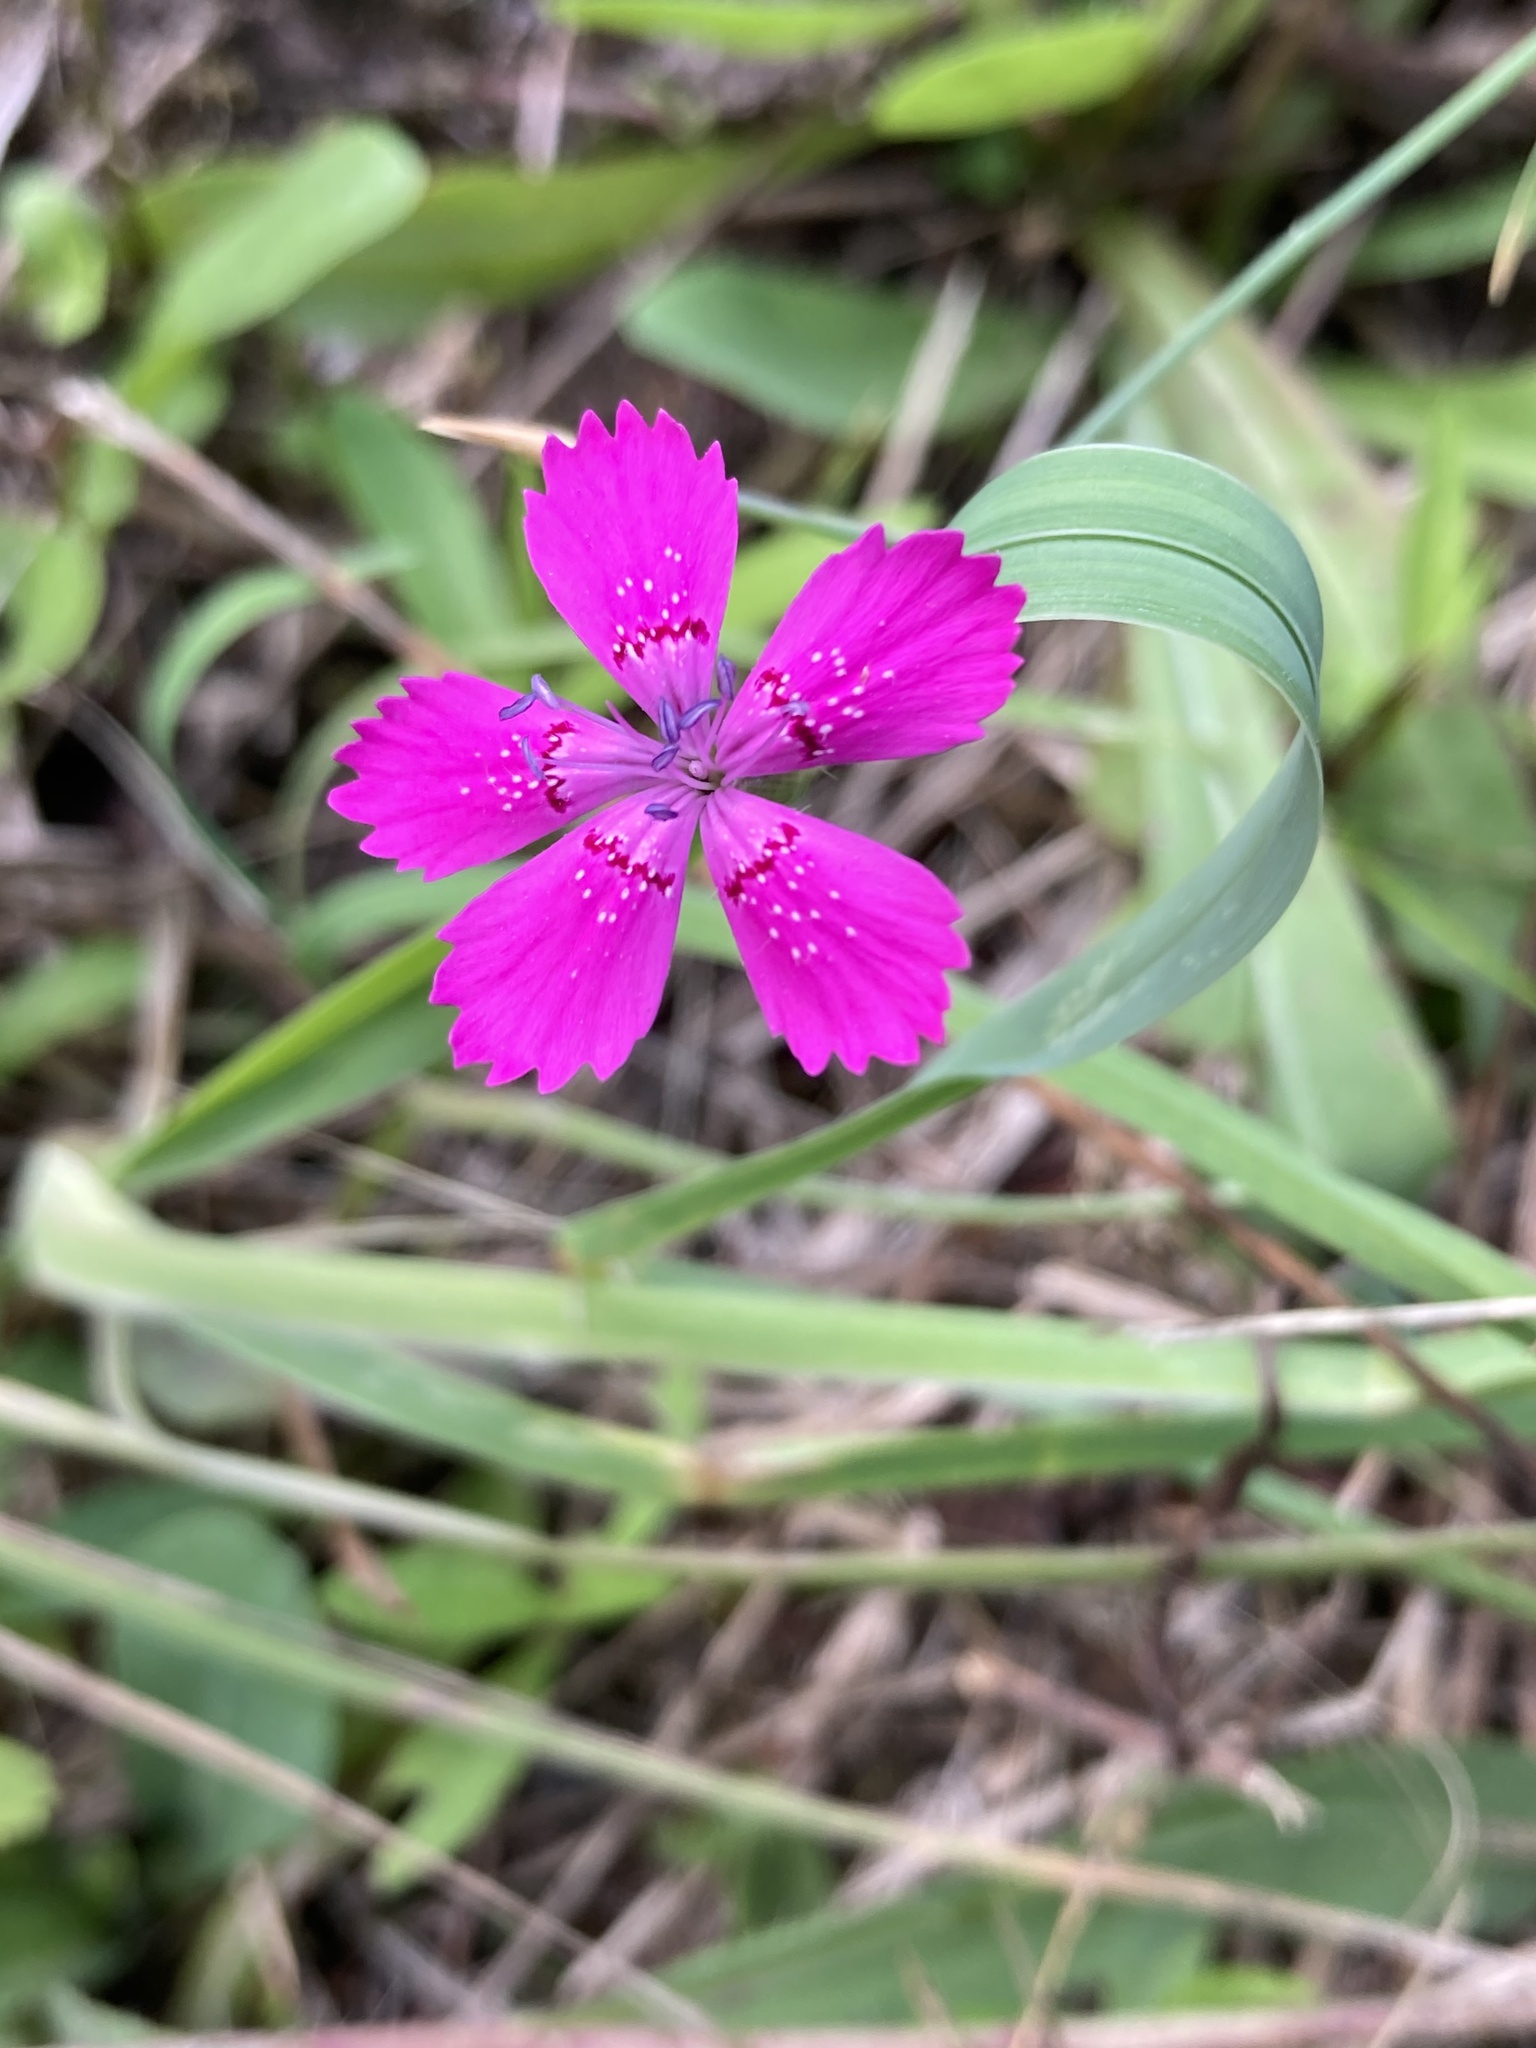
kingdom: Plantae
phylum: Tracheophyta
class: Magnoliopsida
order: Caryophyllales
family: Caryophyllaceae
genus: Dianthus
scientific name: Dianthus deltoides
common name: Maiden pink
